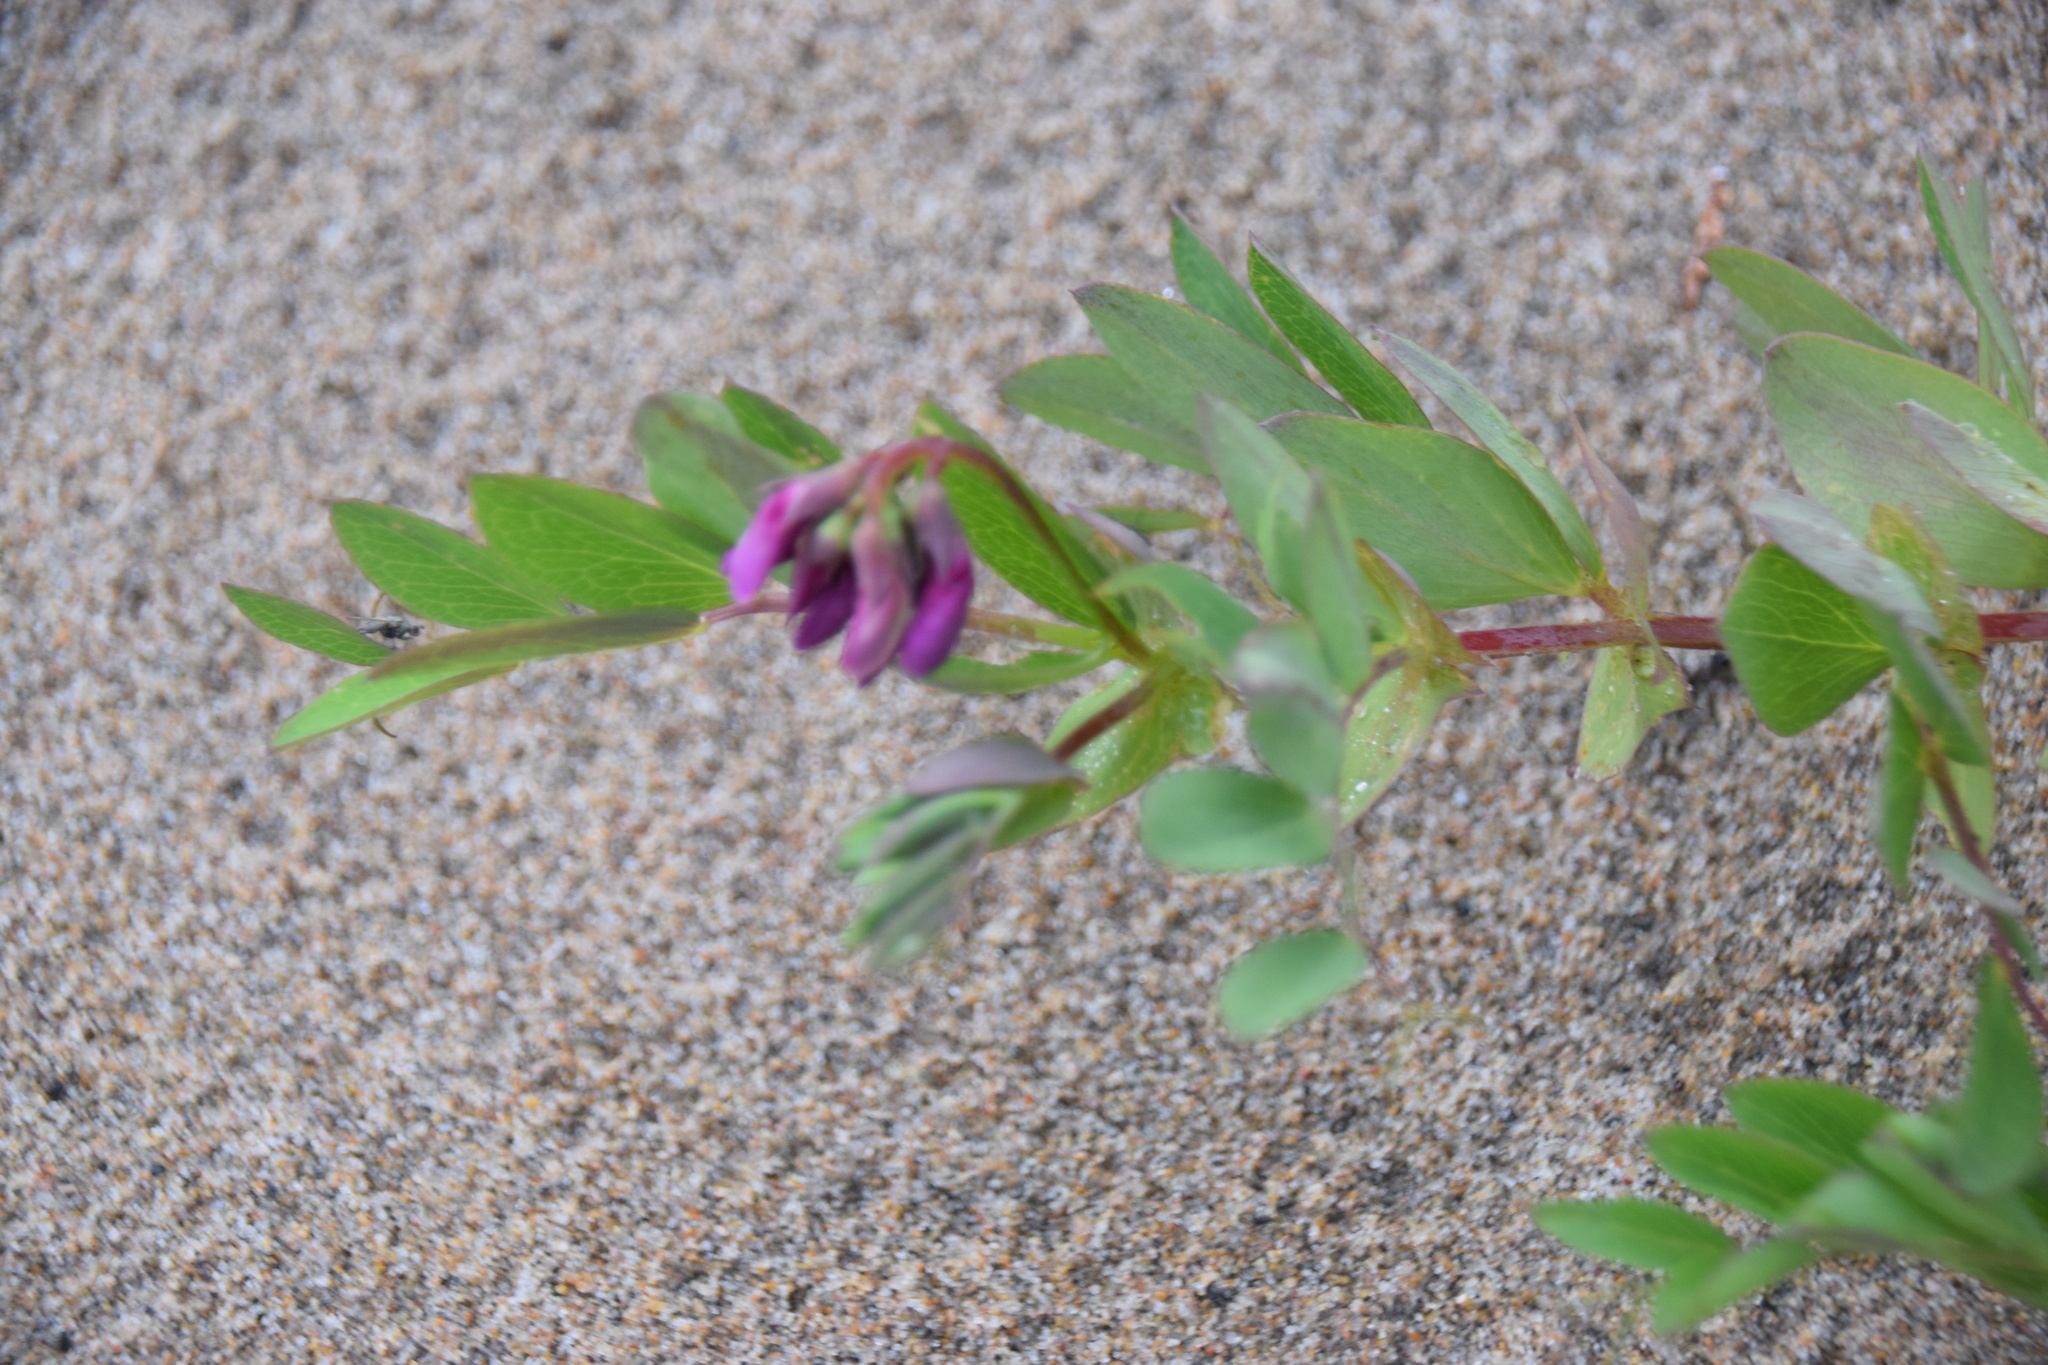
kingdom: Plantae
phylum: Tracheophyta
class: Magnoliopsida
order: Fabales
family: Fabaceae
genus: Lathyrus
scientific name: Lathyrus japonicus
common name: Sea pea
